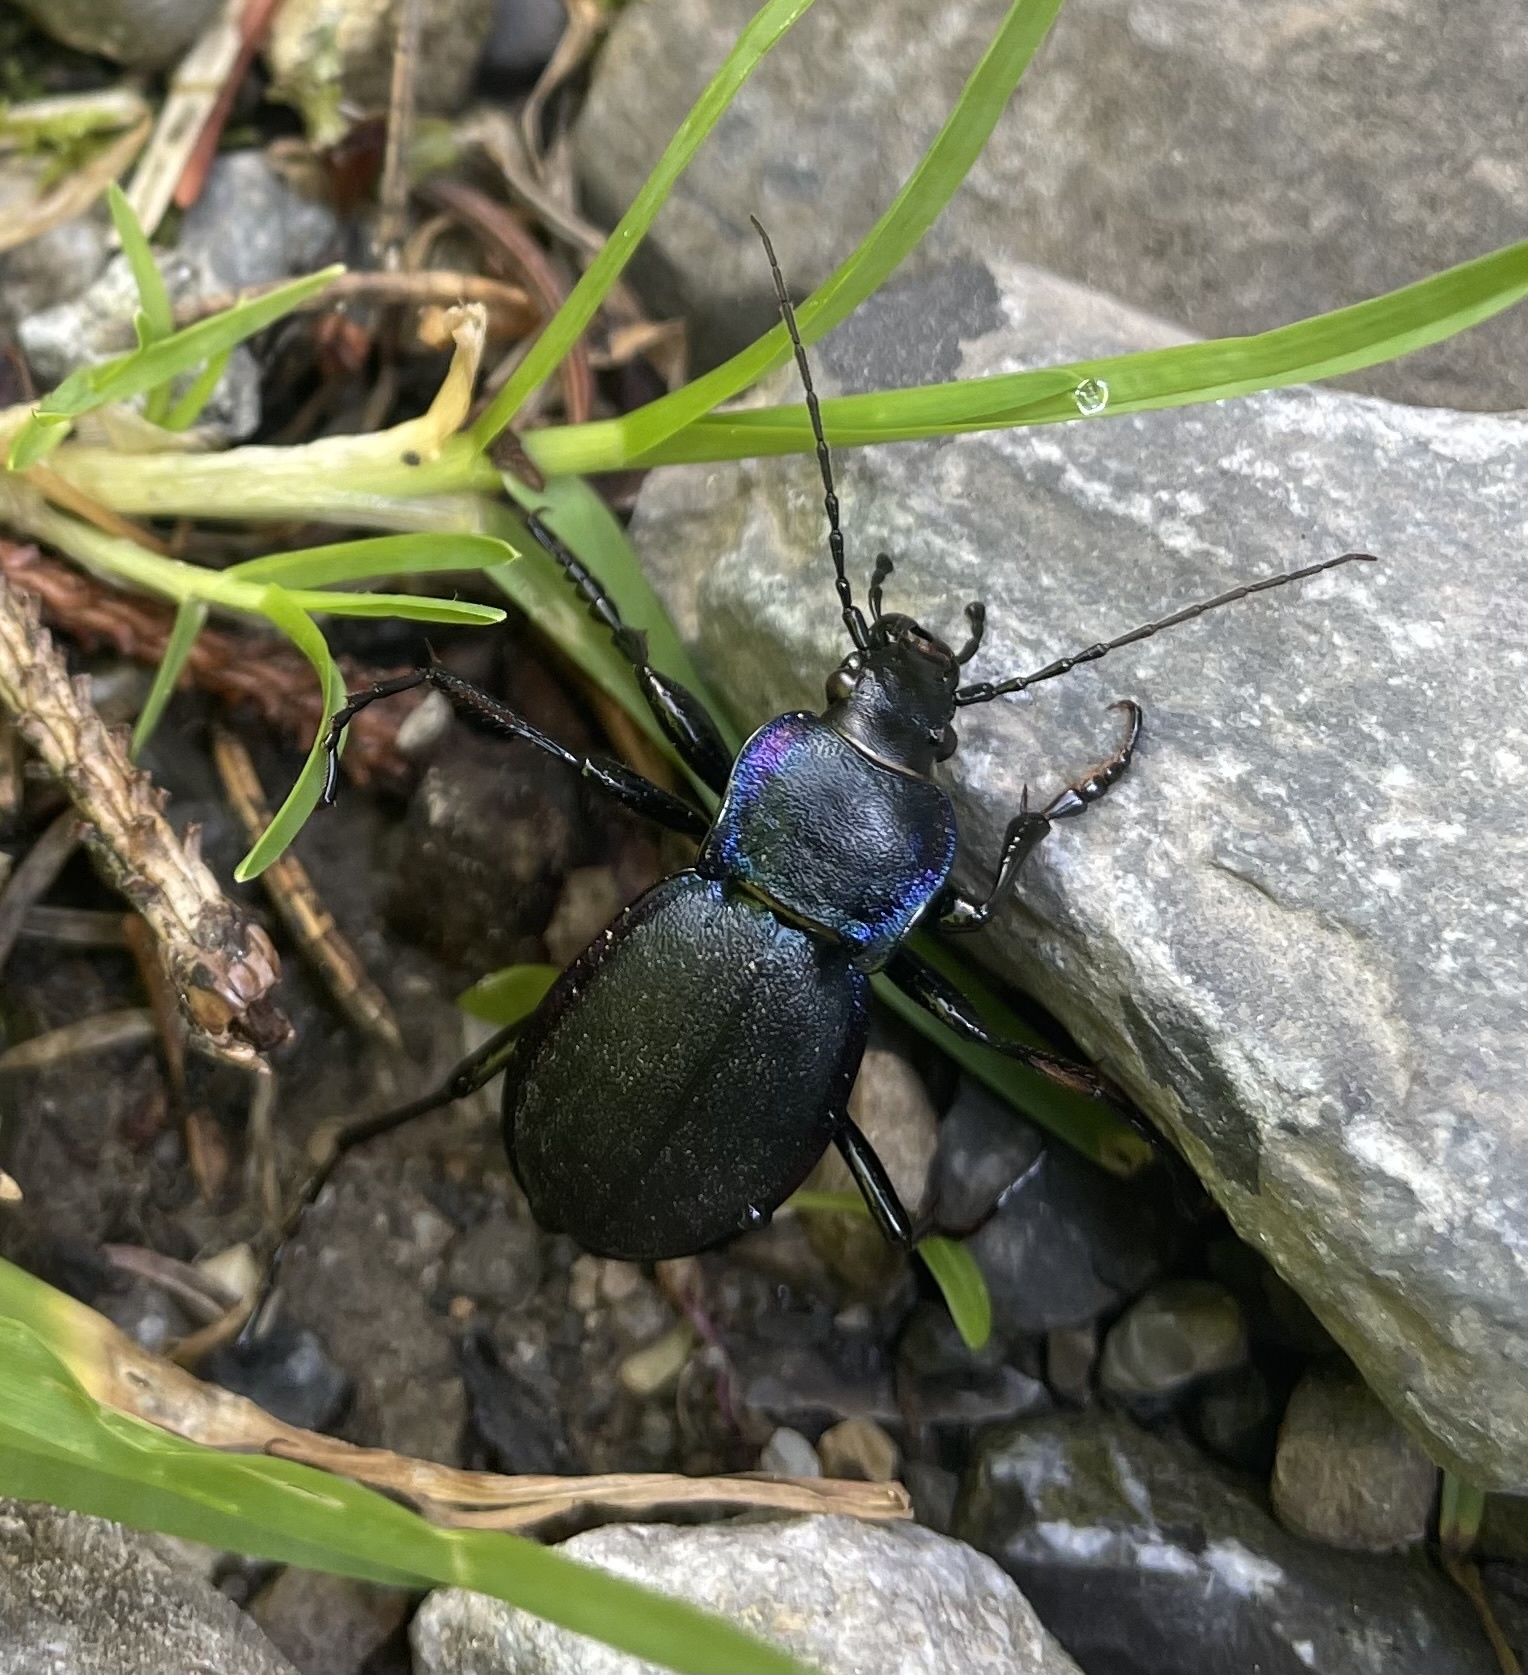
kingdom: Animalia
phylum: Arthropoda
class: Insecta
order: Coleoptera
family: Carabidae
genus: Carabus
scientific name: Carabus violaceus
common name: Violet ground beetle
